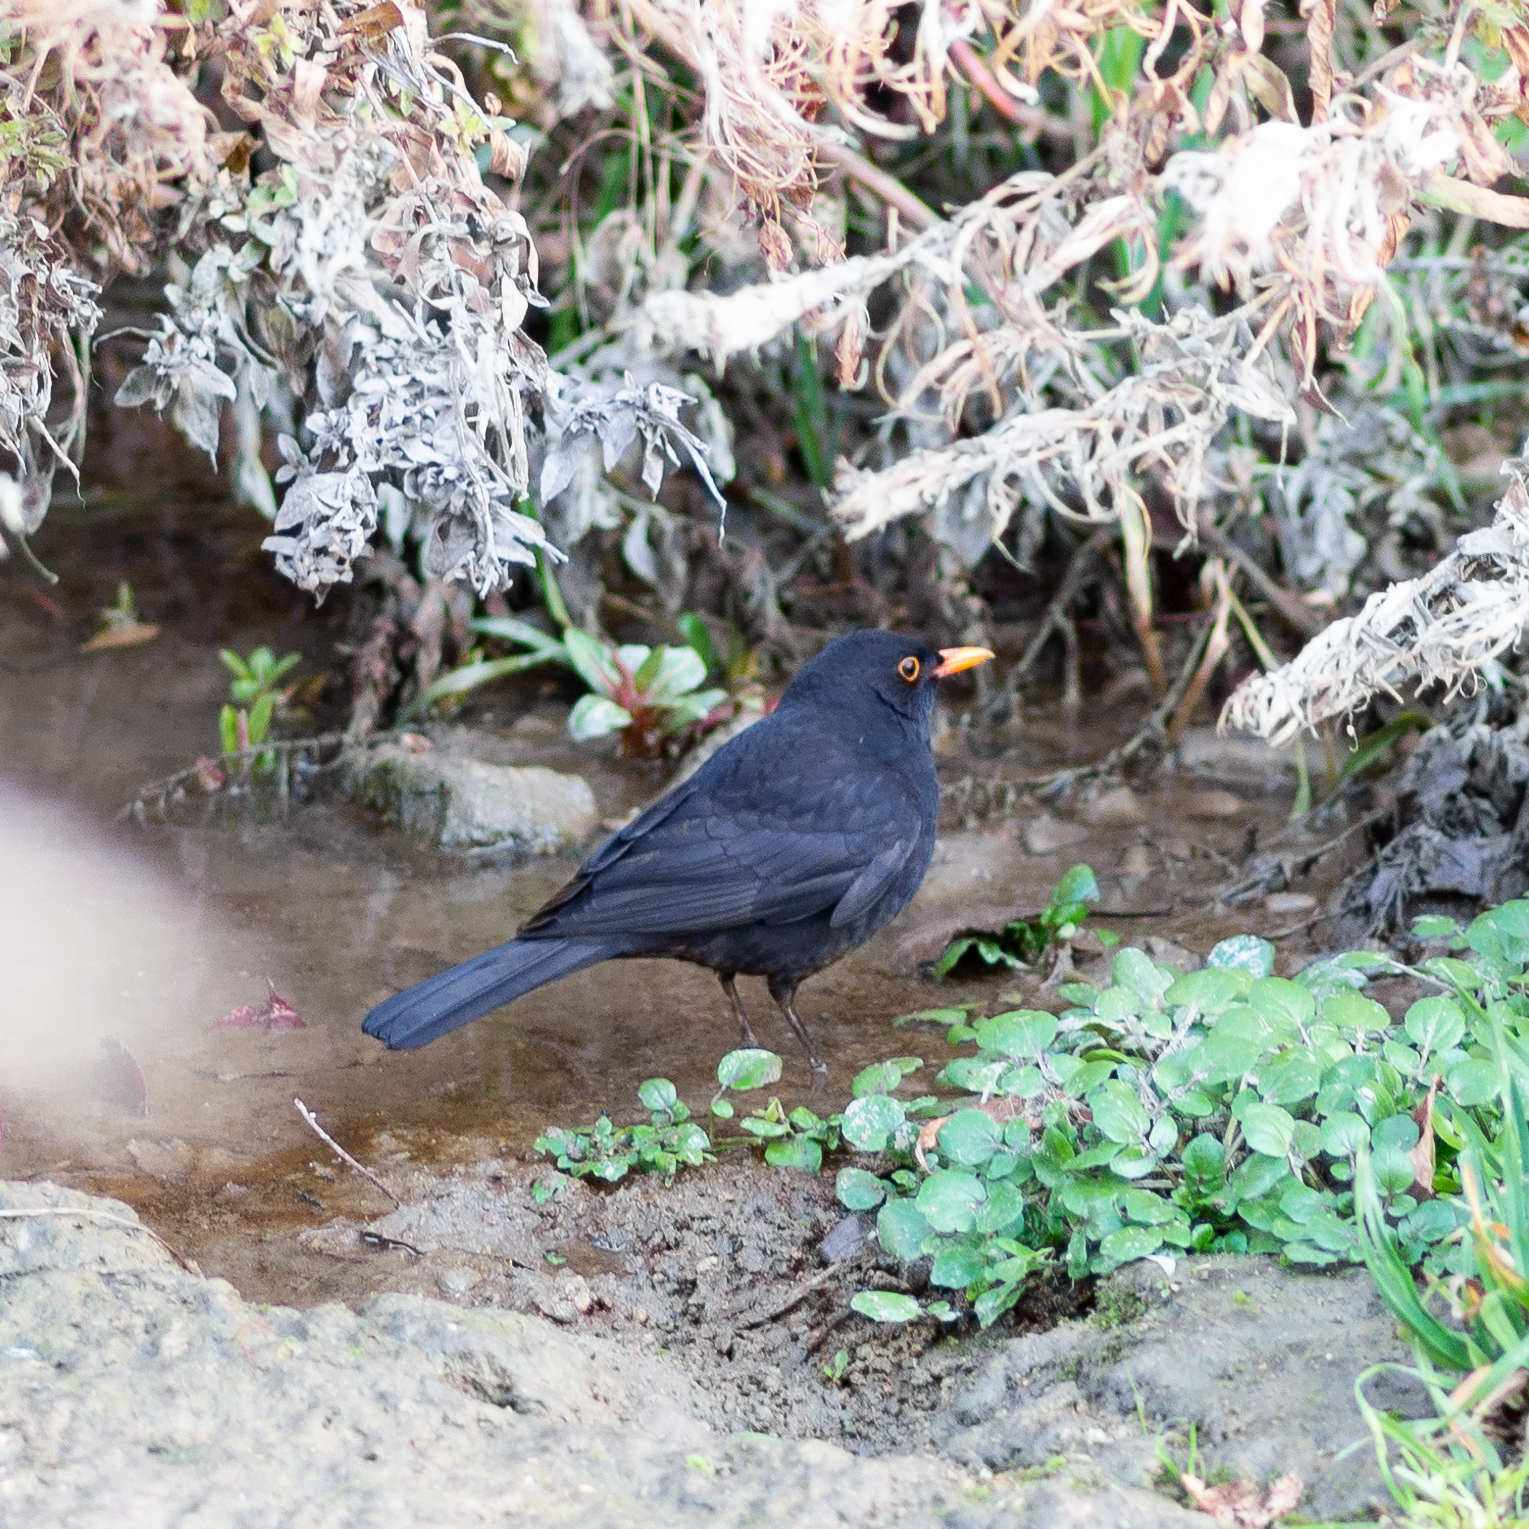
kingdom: Animalia
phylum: Chordata
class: Aves
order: Passeriformes
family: Turdidae
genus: Turdus
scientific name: Turdus merula
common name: Common blackbird
